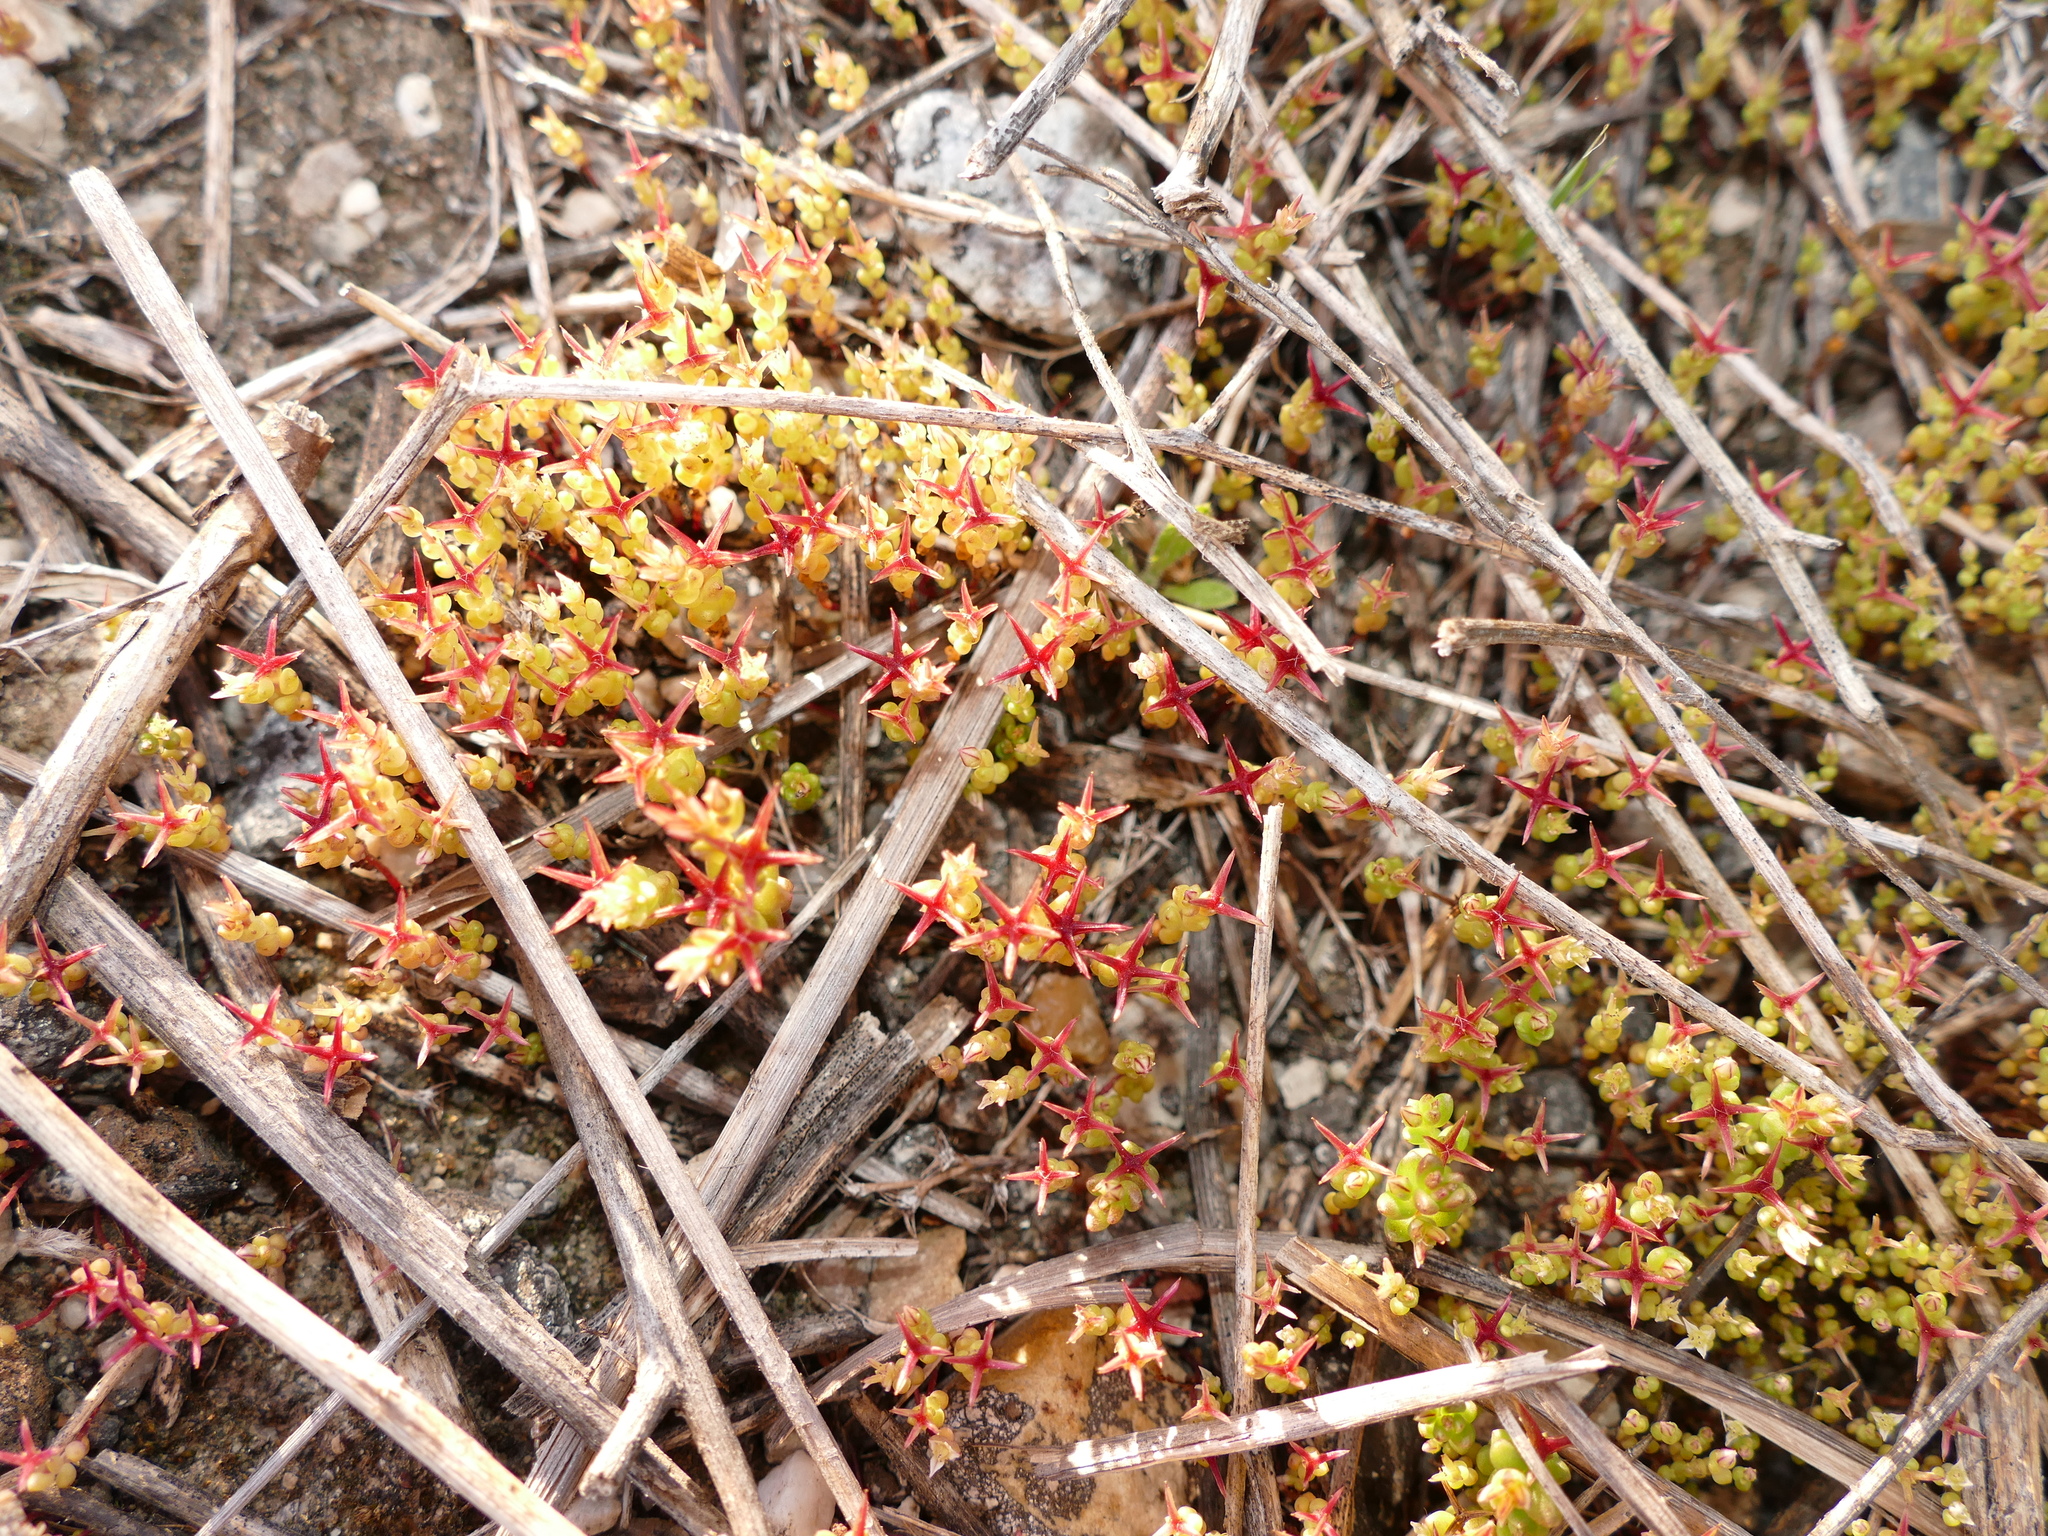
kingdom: Plantae
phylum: Tracheophyta
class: Magnoliopsida
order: Saxifragales
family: Crassulaceae
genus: Sedum
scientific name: Sedum cespitosum
